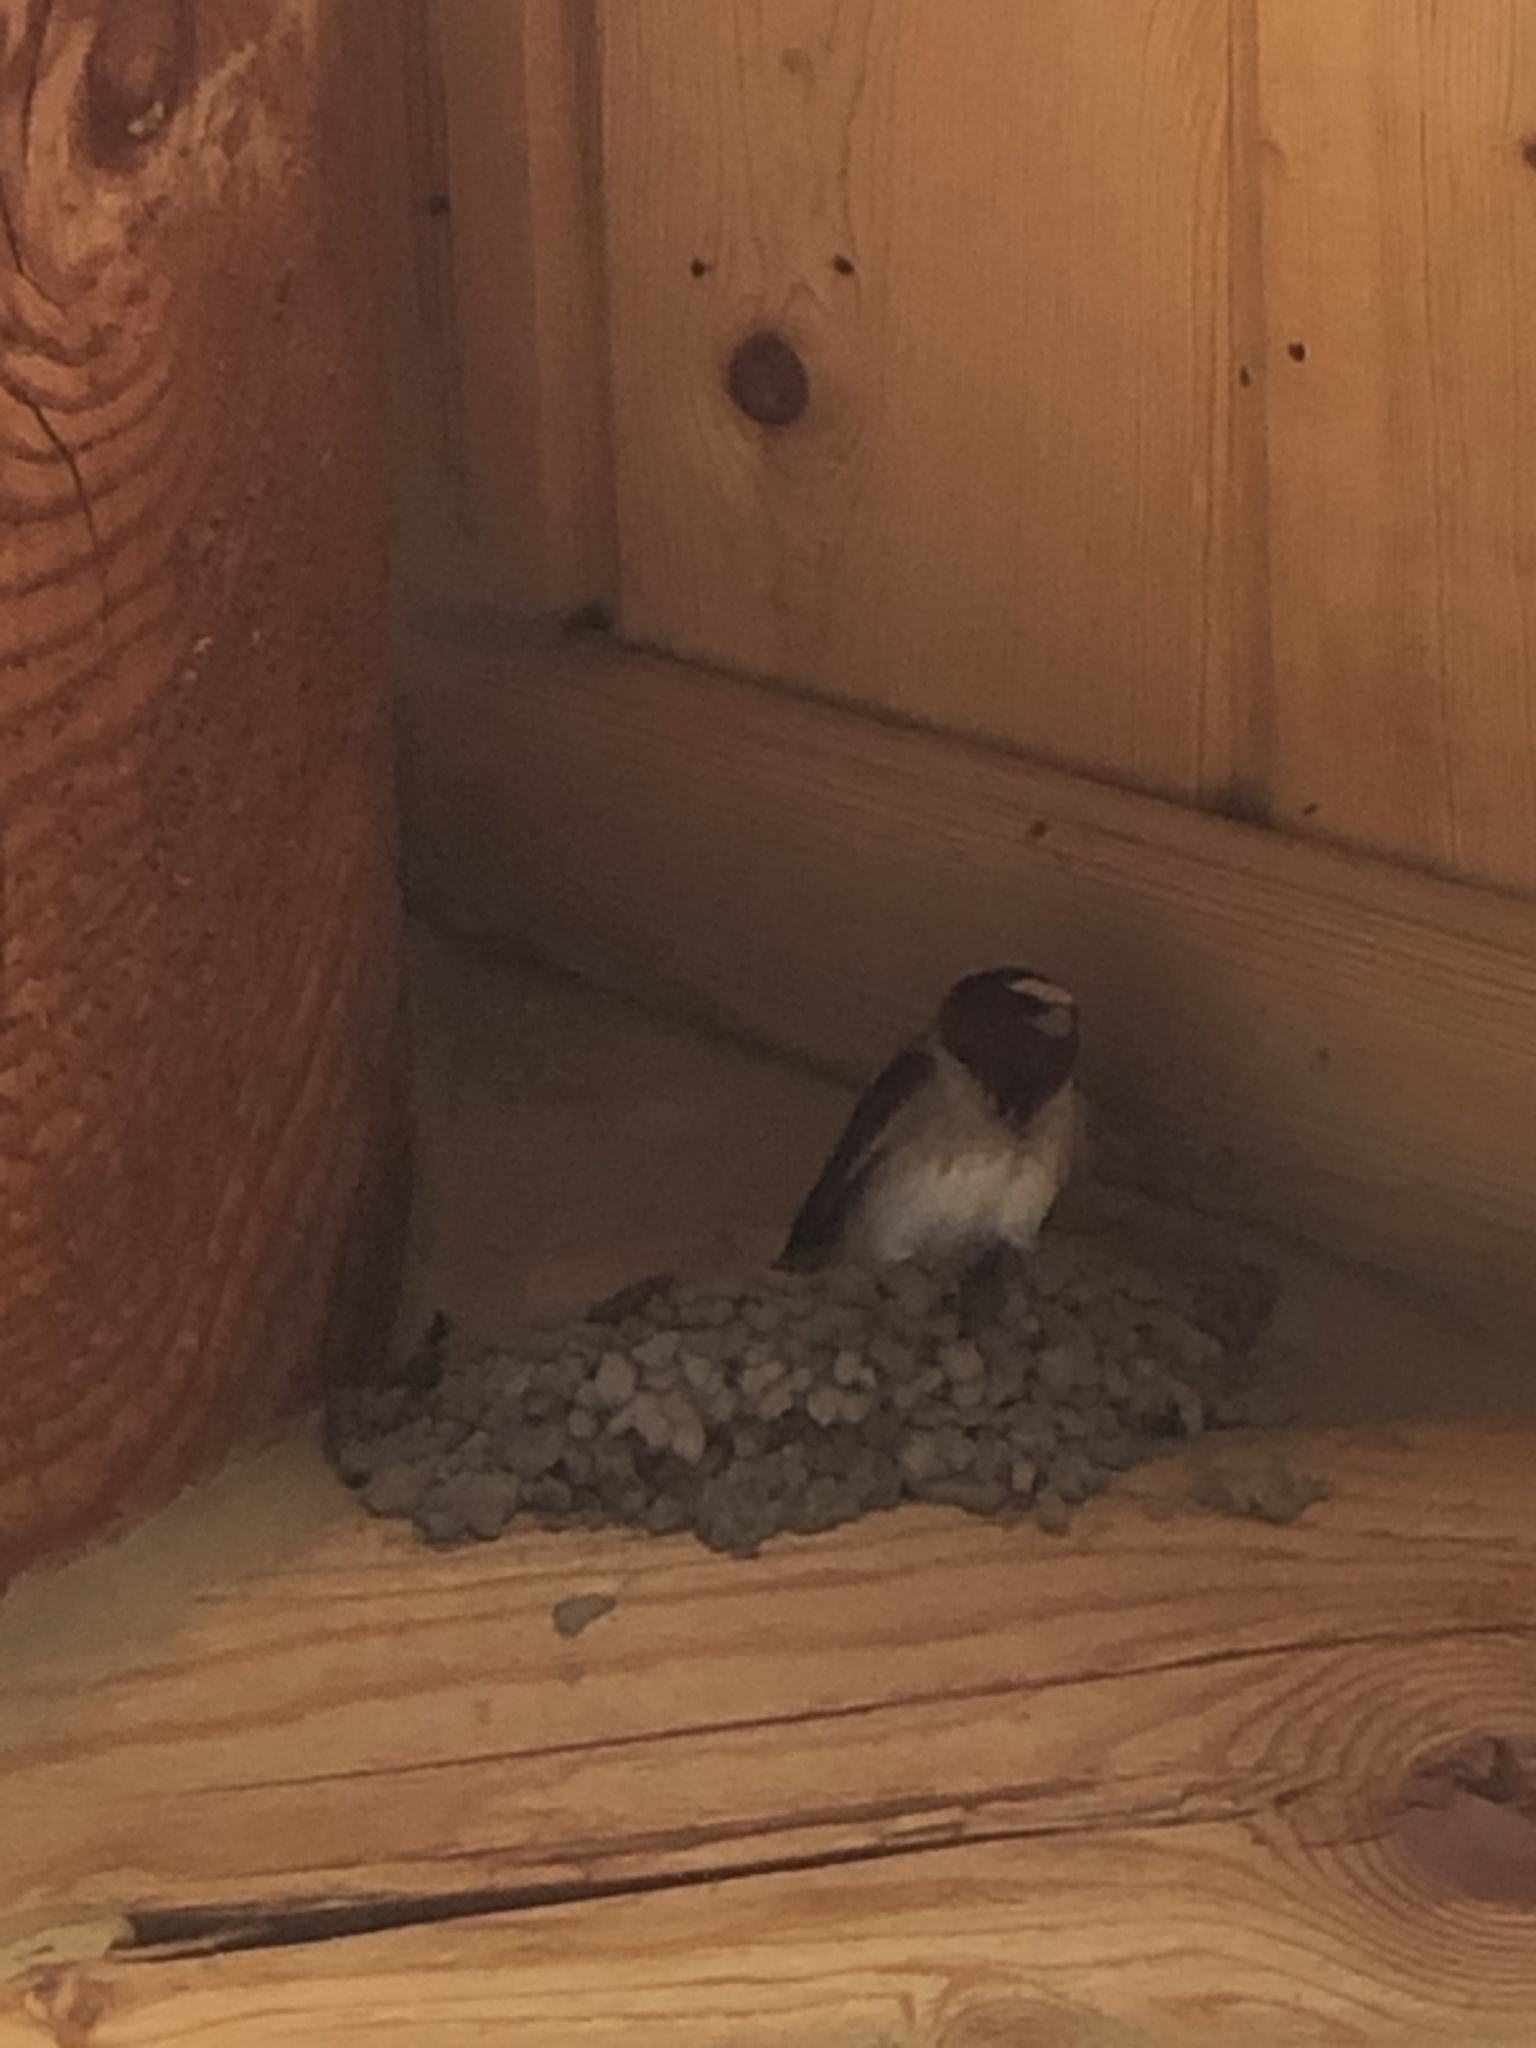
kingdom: Animalia
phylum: Chordata
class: Aves
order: Passeriformes
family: Hirundinidae
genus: Petrochelidon
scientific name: Petrochelidon pyrrhonota
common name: American cliff swallow
